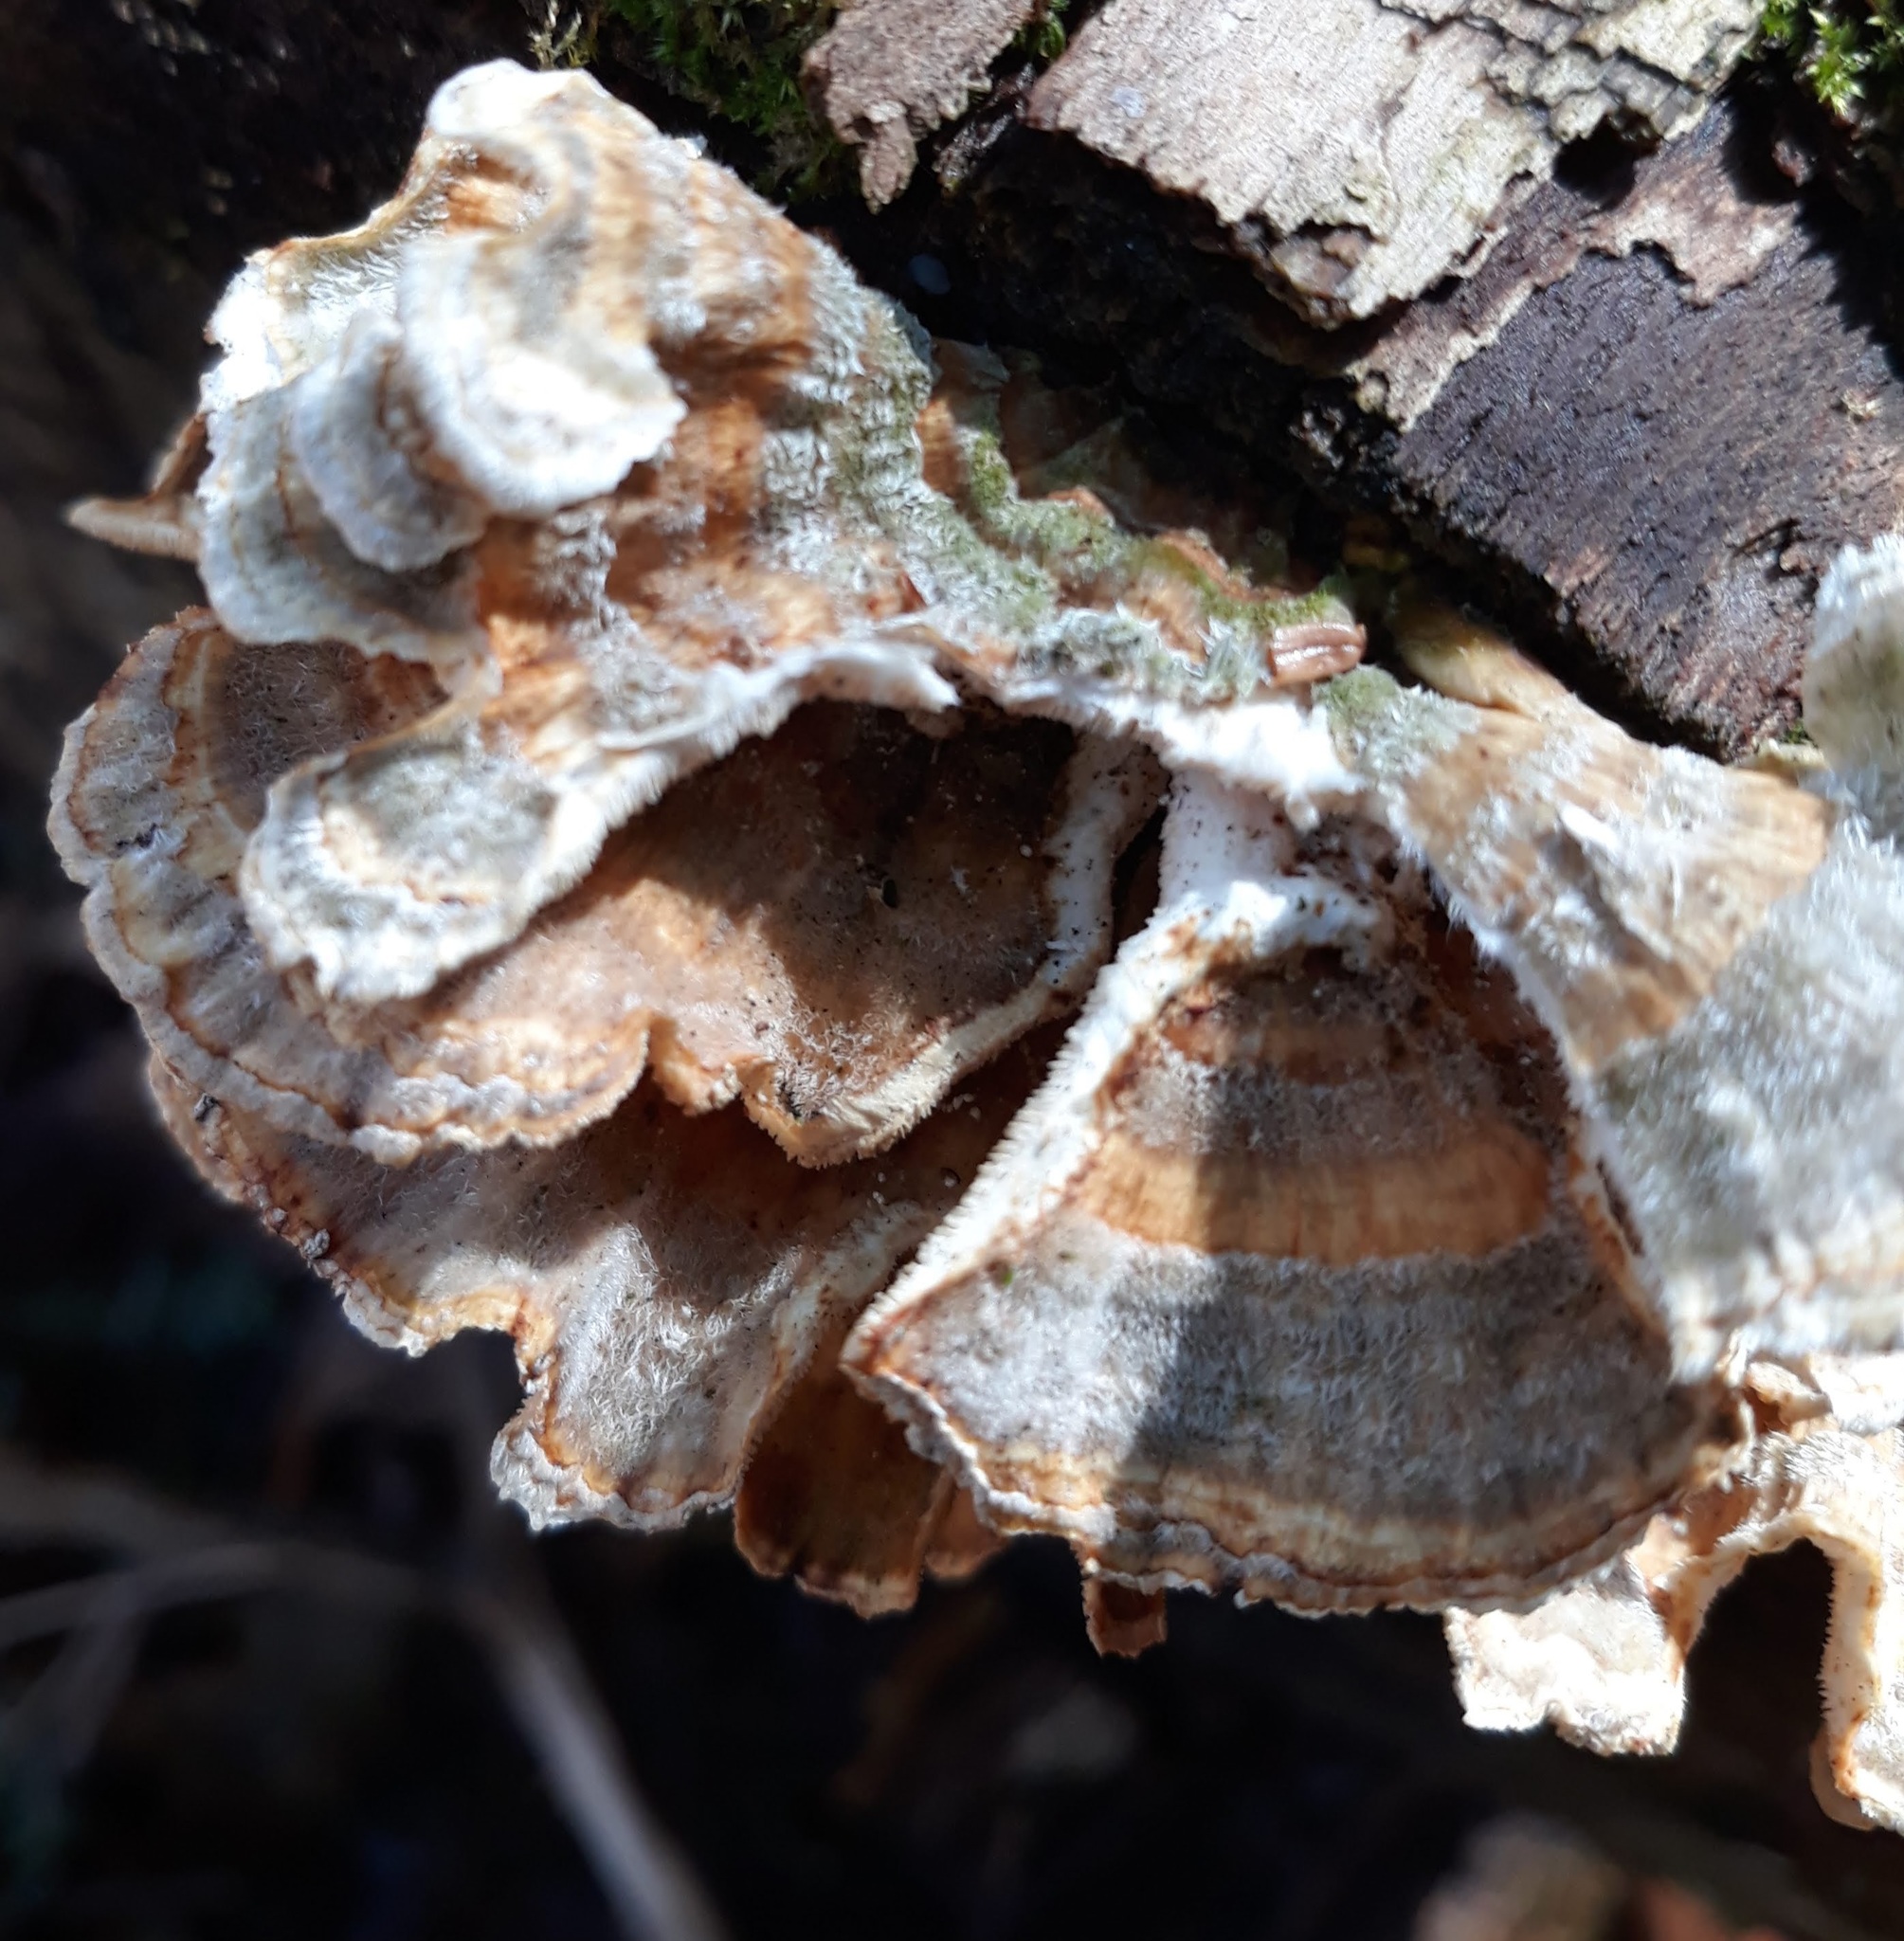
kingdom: Fungi
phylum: Basidiomycota
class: Agaricomycetes
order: Polyporales
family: Polyporaceae
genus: Trametes
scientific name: Trametes versicolor
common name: Turkeytail
